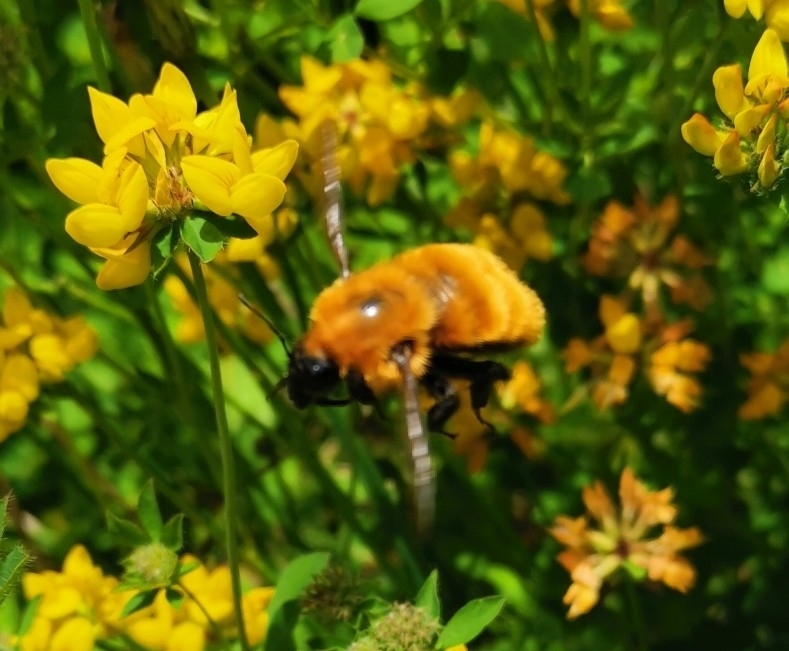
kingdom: Animalia
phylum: Arthropoda
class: Insecta
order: Hymenoptera
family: Apidae
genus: Bombus
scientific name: Bombus dahlbomii
